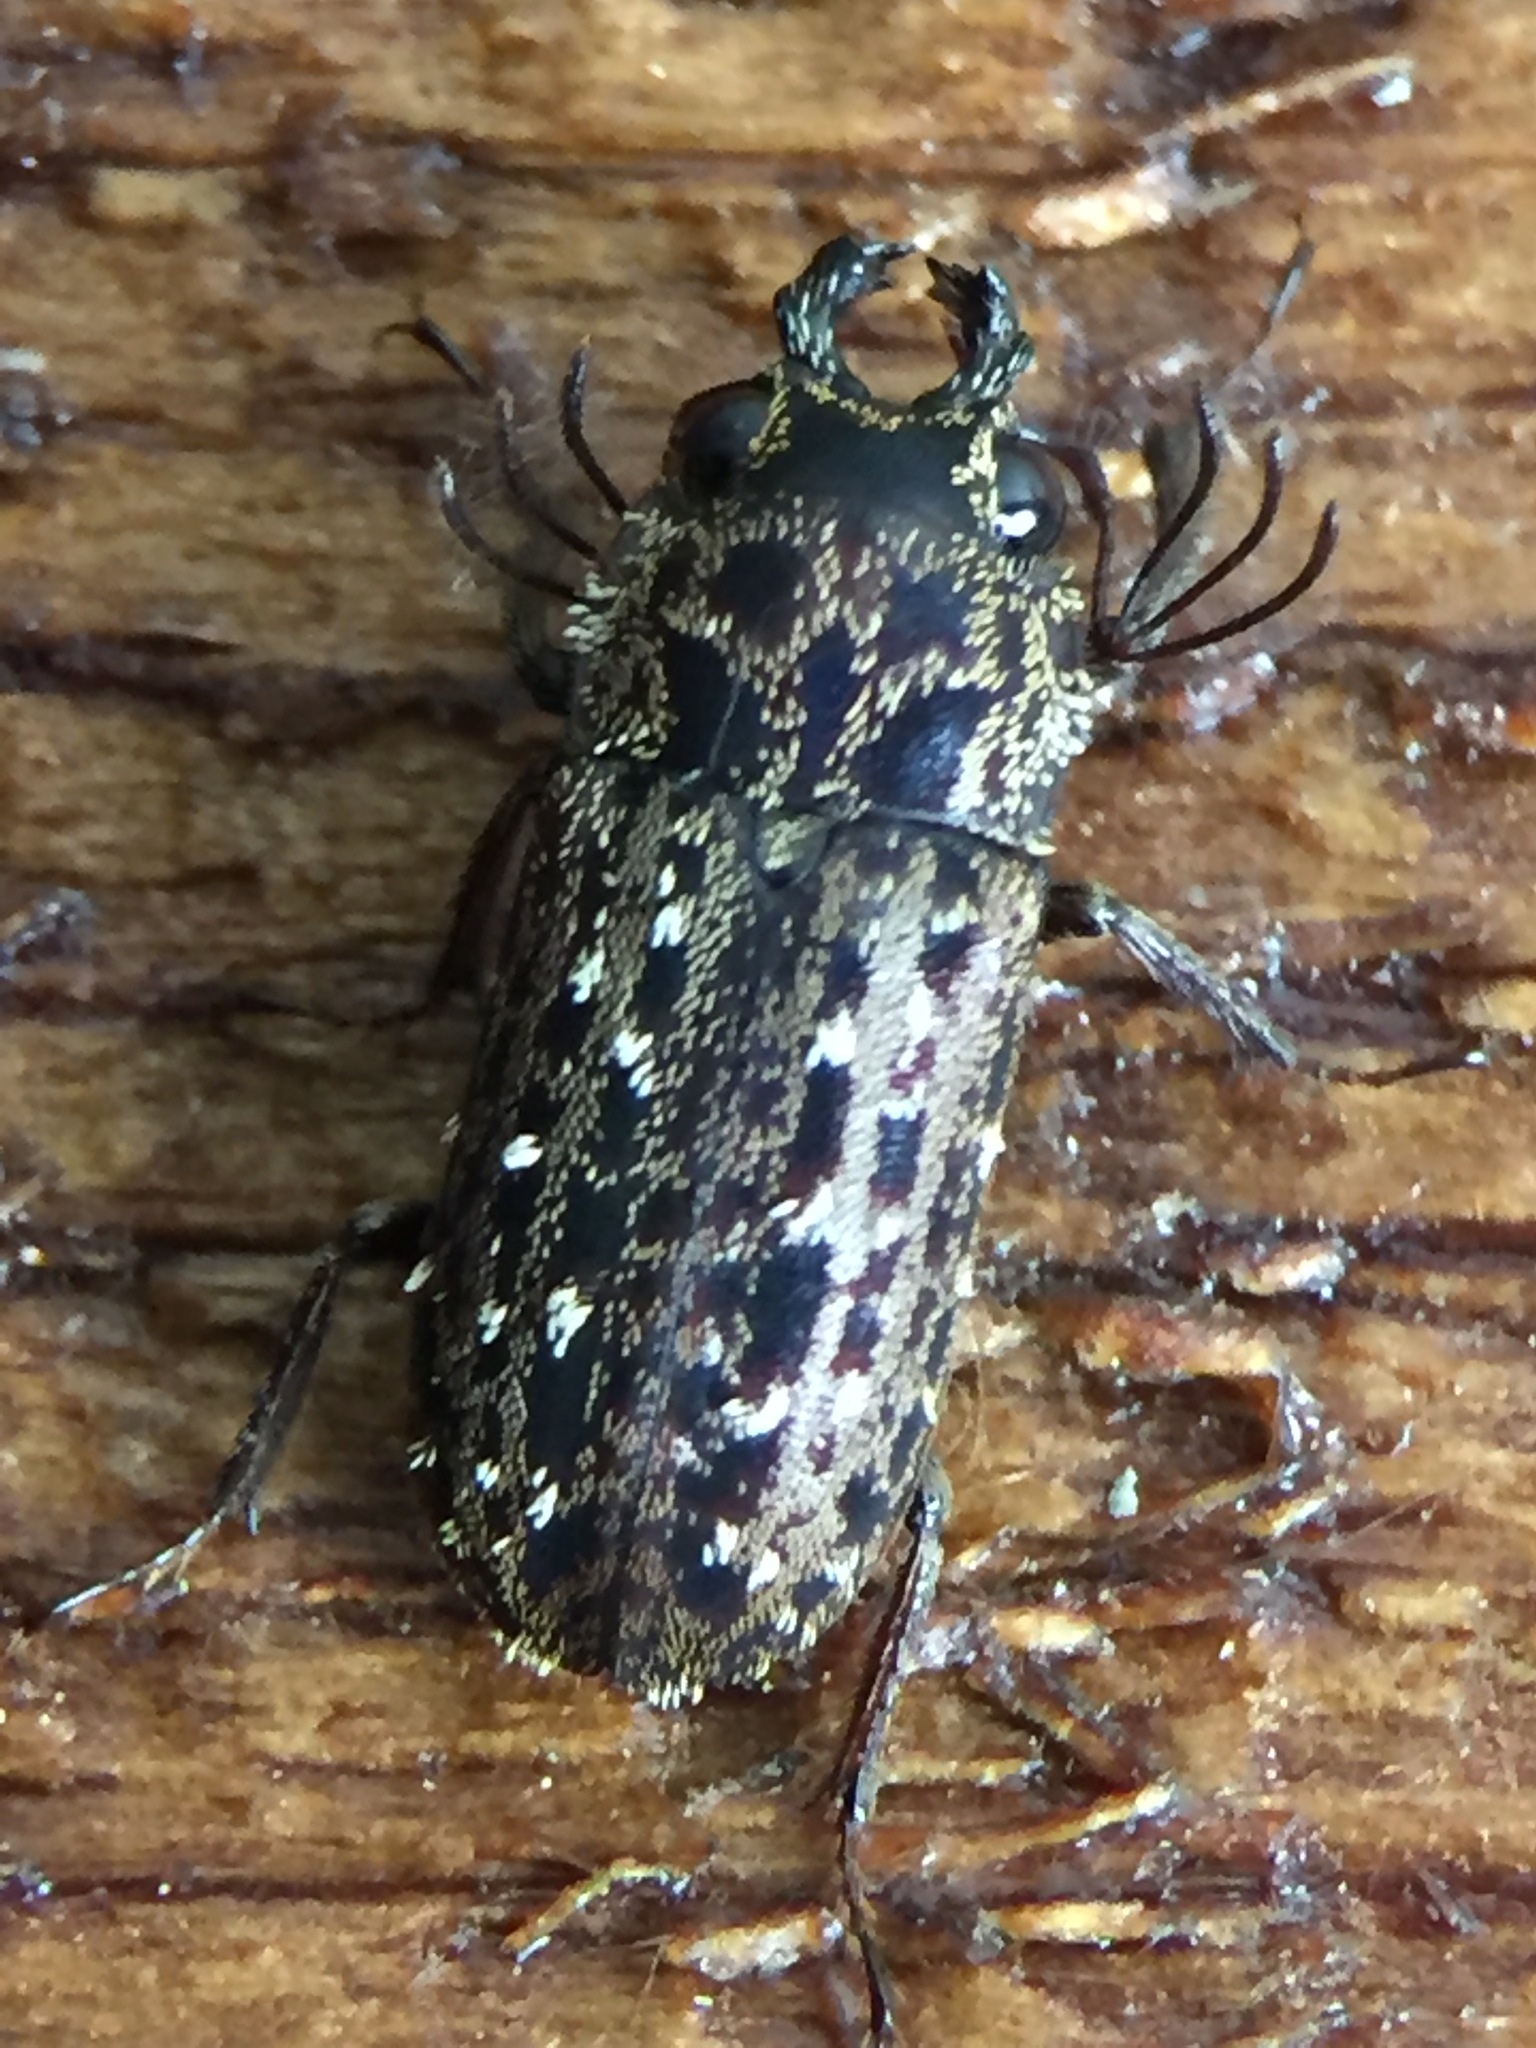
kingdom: Animalia
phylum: Arthropoda
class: Insecta
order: Coleoptera
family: Lucanidae
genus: Mitophyllus
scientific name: Mitophyllus arcuatus
